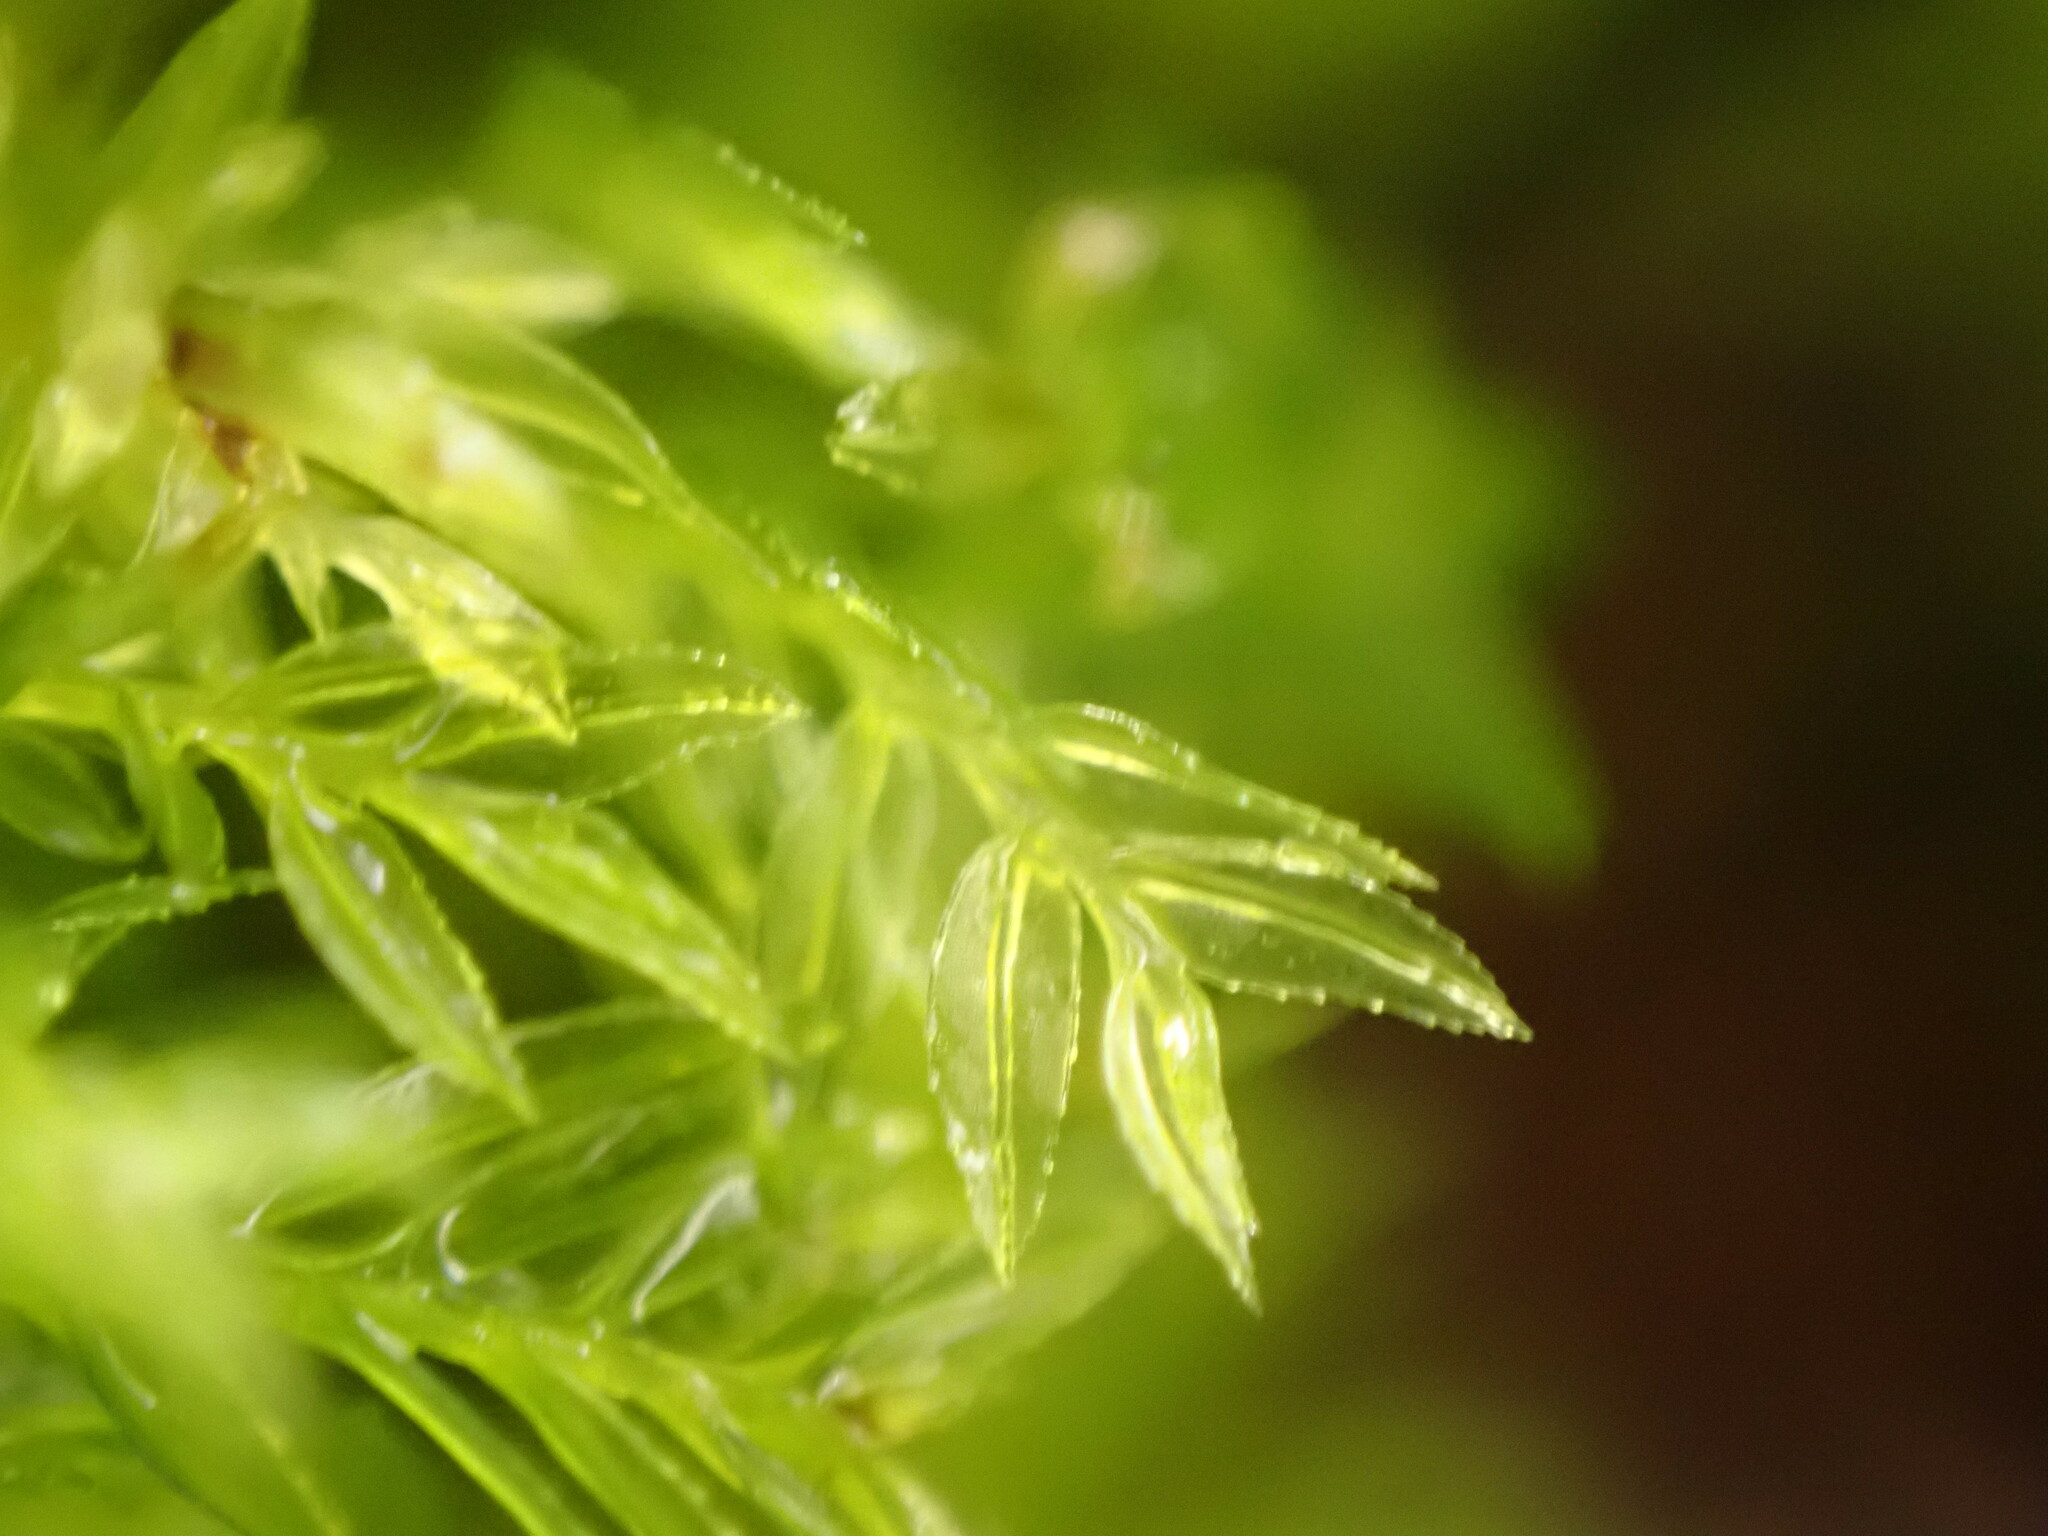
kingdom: Plantae
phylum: Bryophyta
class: Bryopsida
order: Aulacomniales
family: Aulacomniaceae
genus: Hymenodontopsis
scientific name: Hymenodontopsis bifaria
